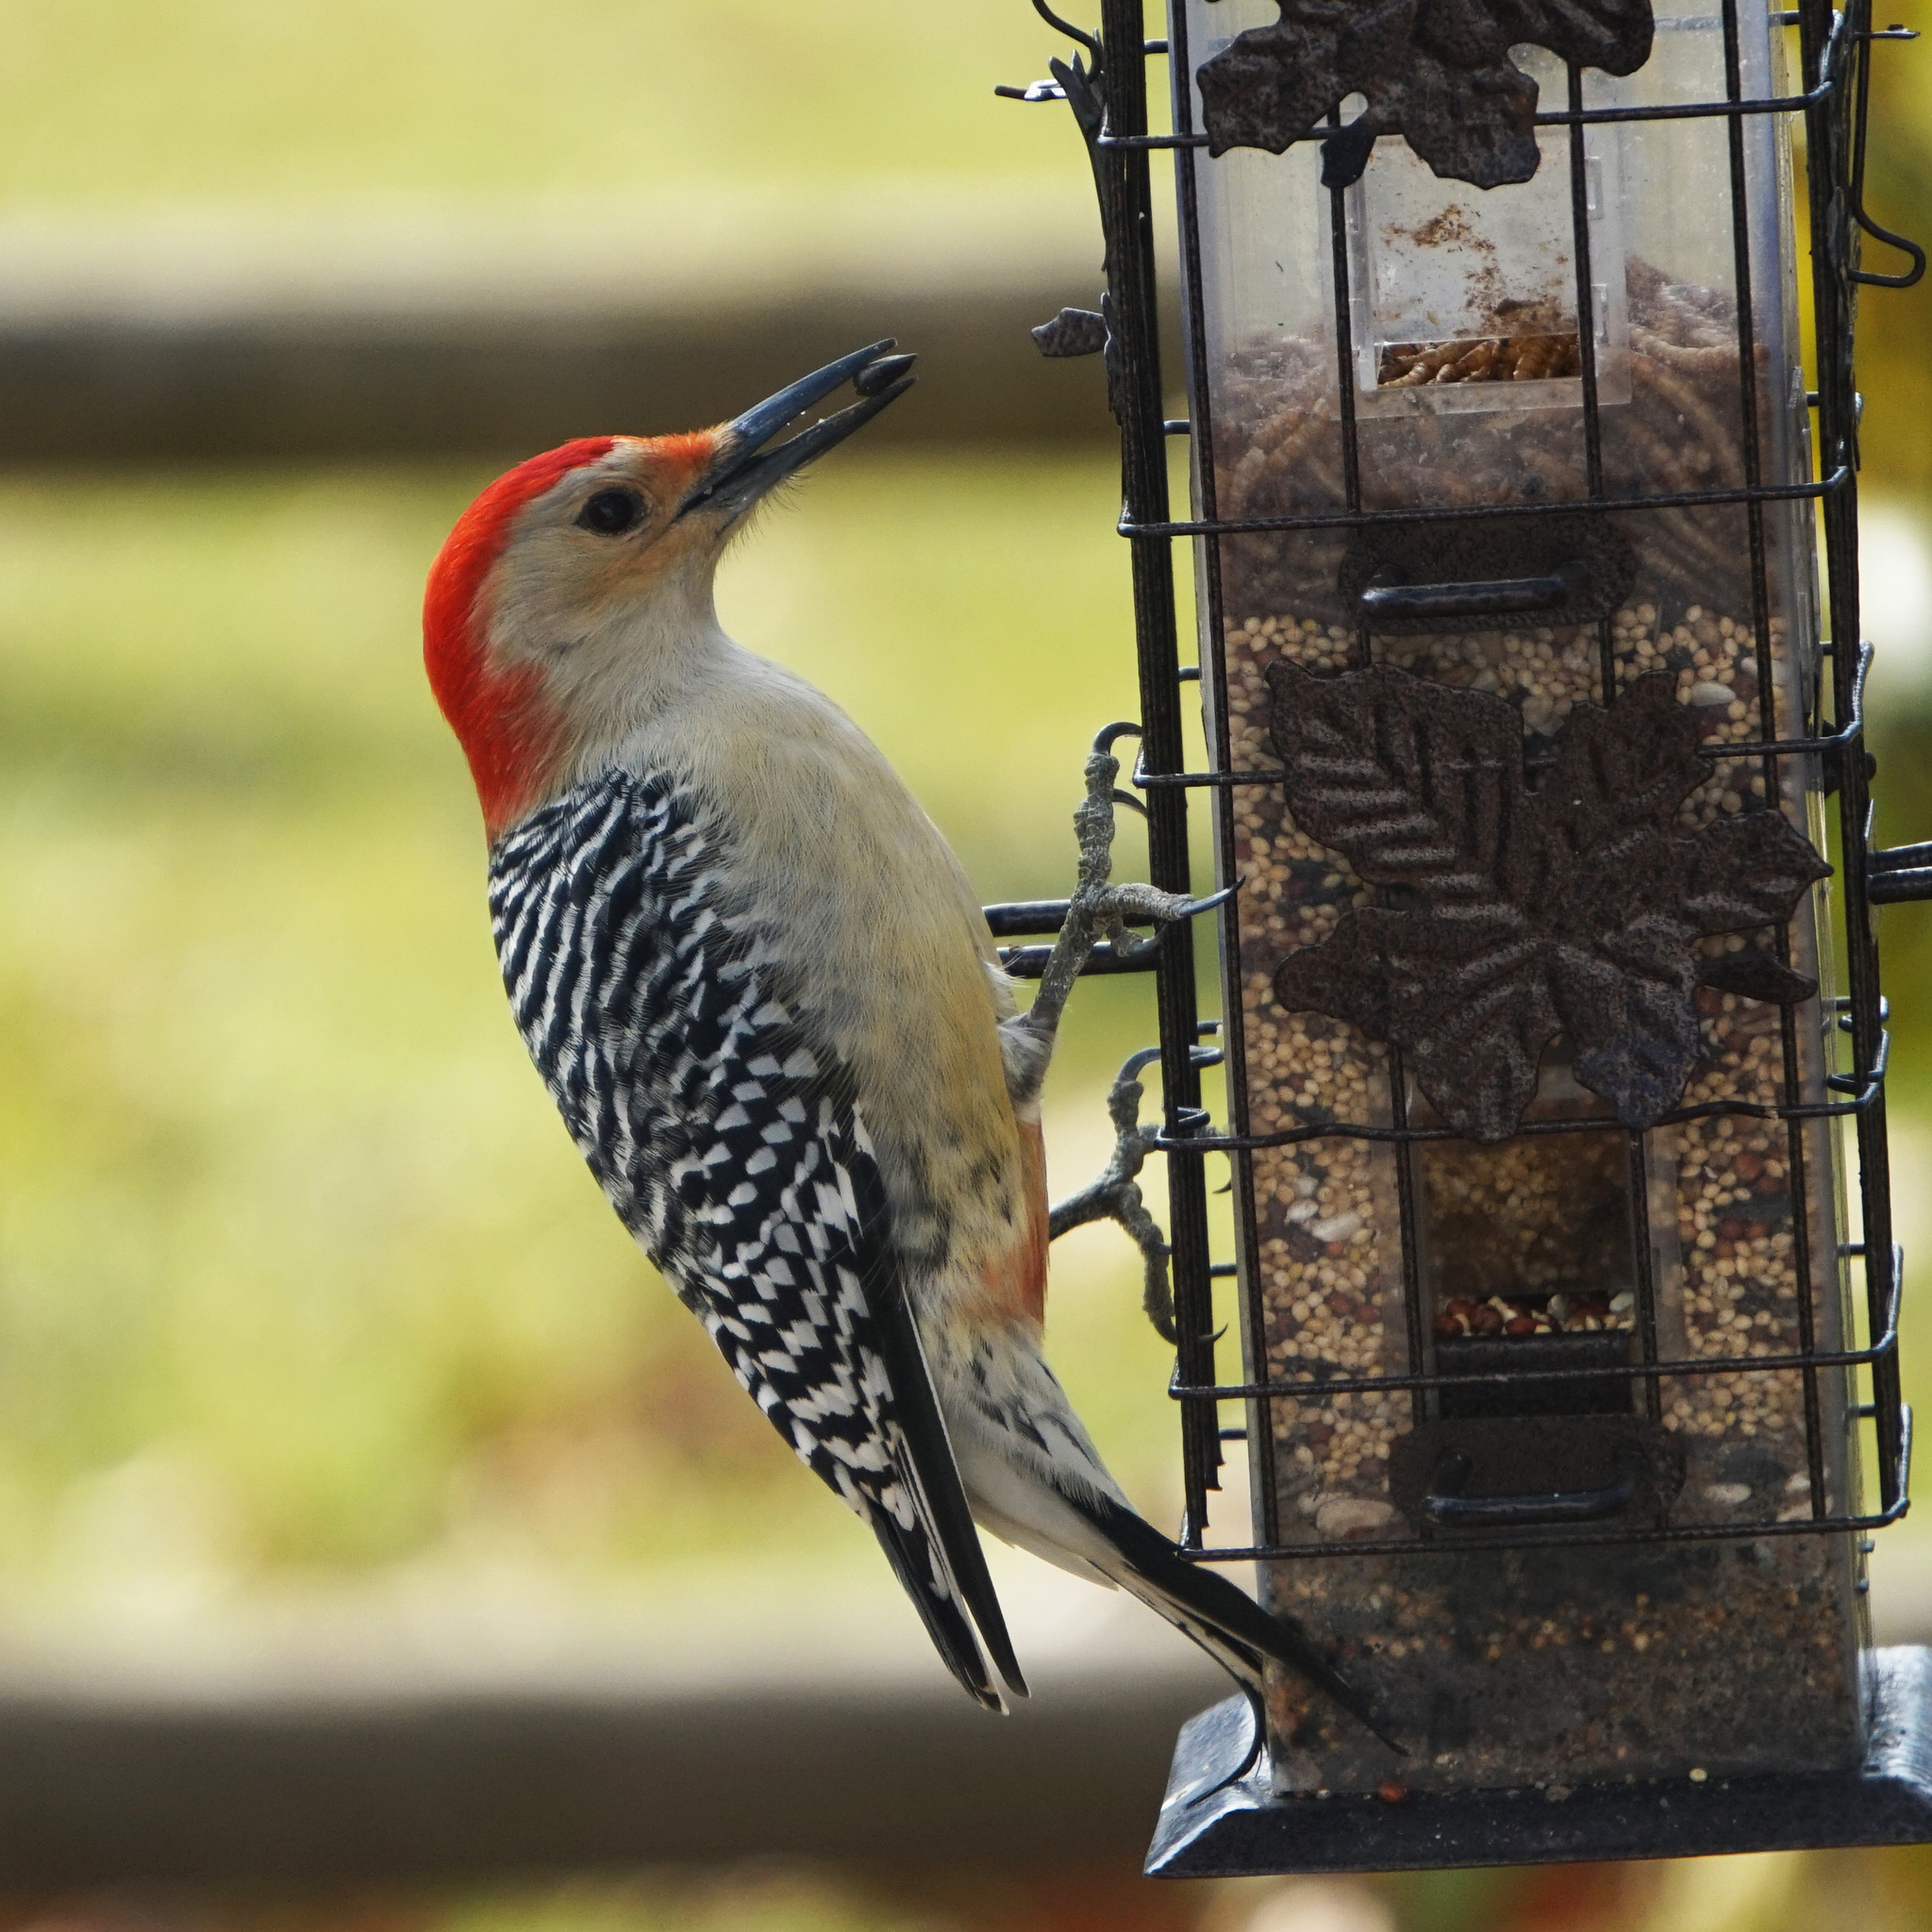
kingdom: Animalia
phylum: Chordata
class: Aves
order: Piciformes
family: Picidae
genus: Melanerpes
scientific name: Melanerpes carolinus
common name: Red-bellied woodpecker
